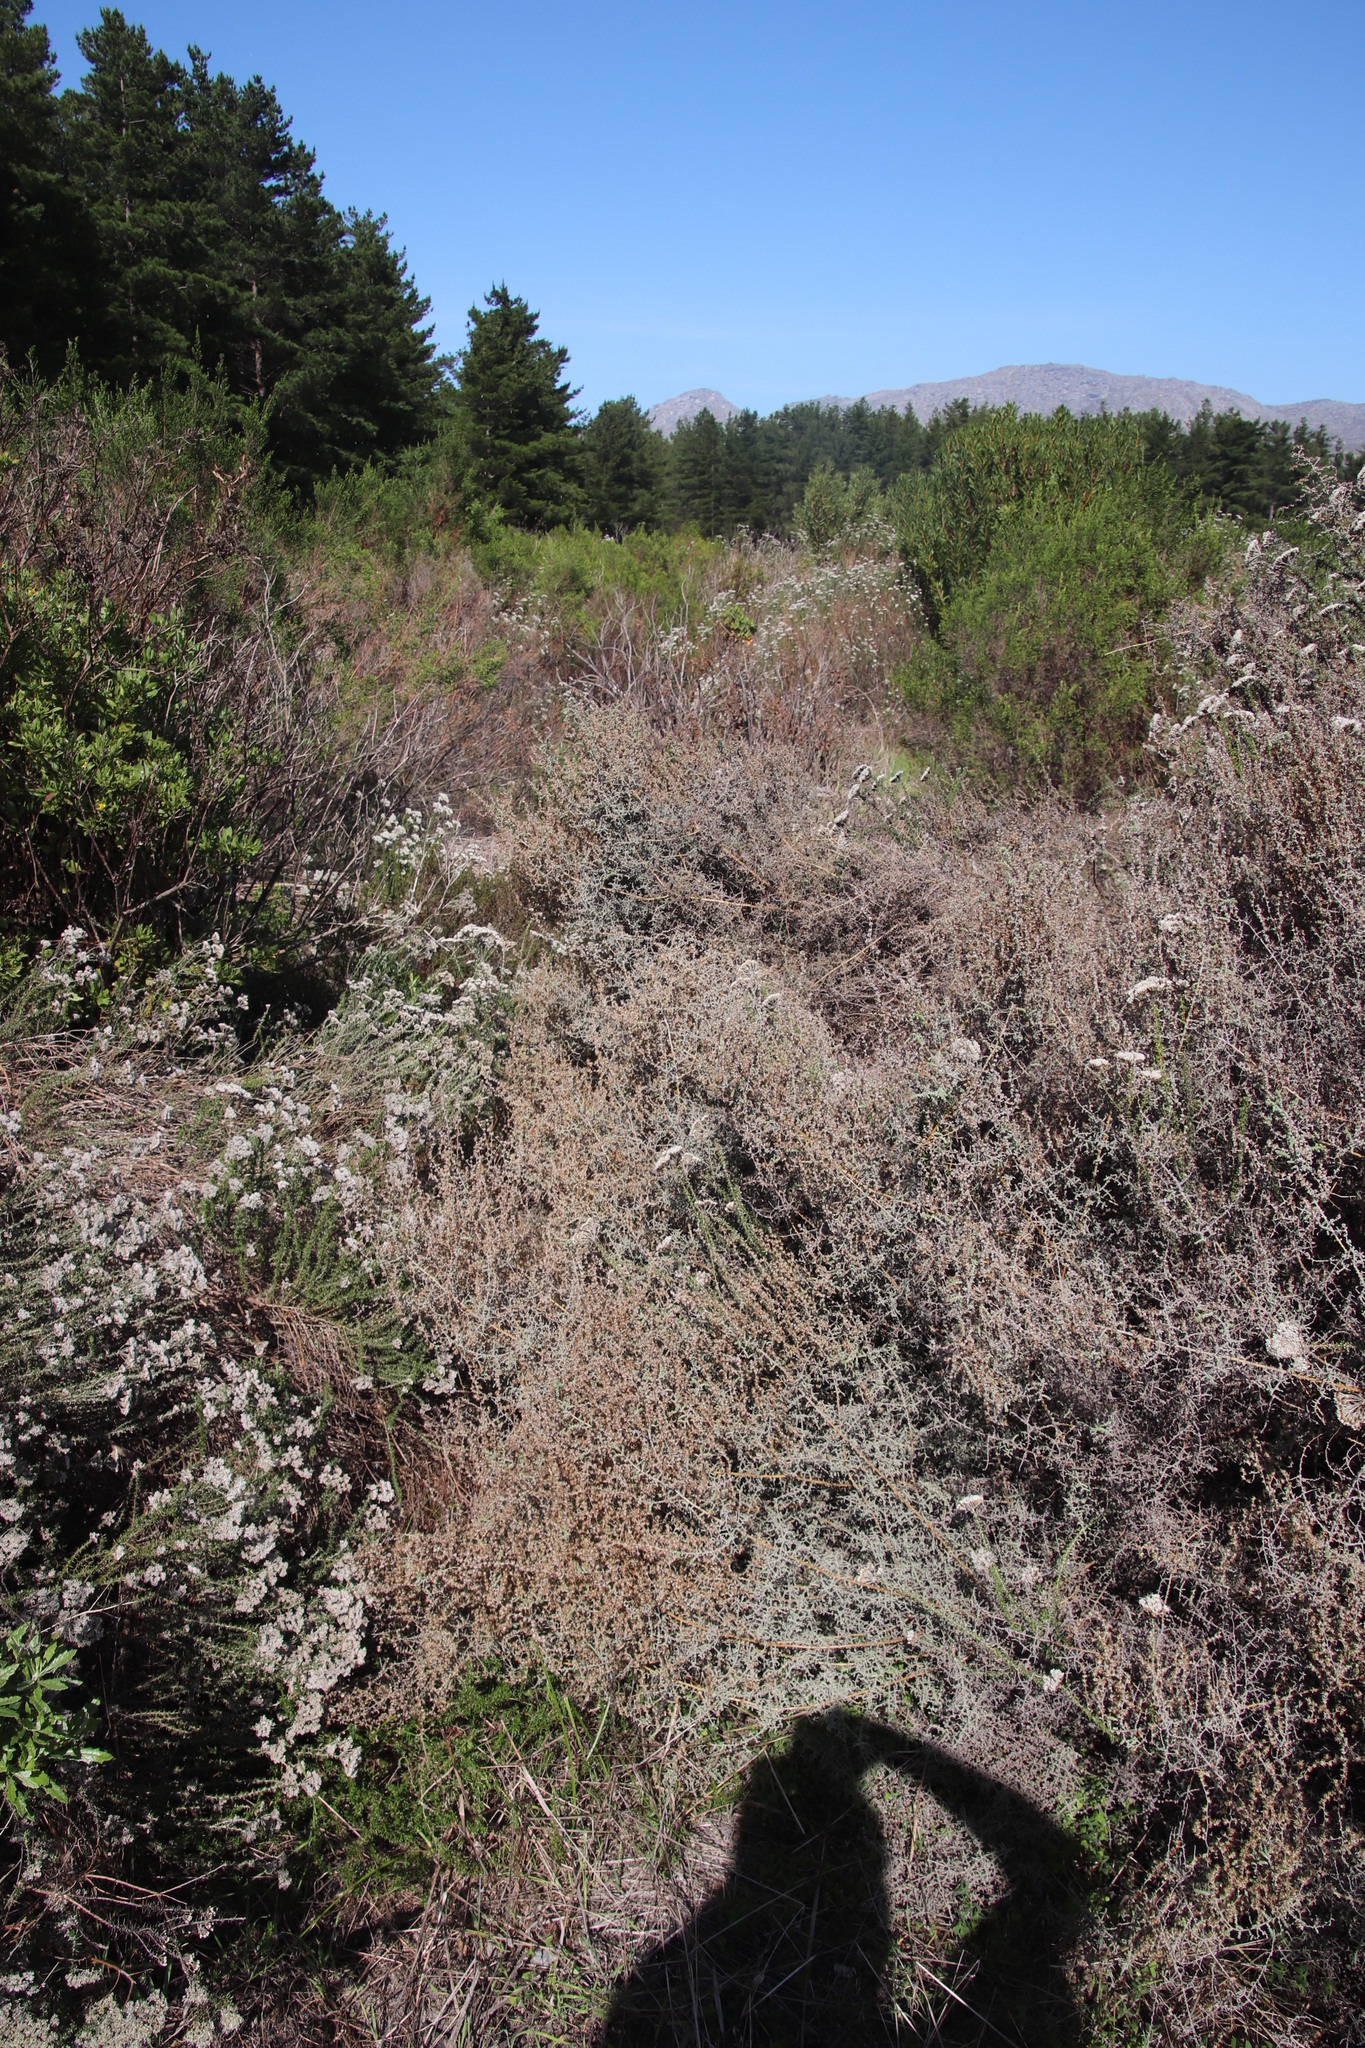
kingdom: Plantae
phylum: Tracheophyta
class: Magnoliopsida
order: Asterales
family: Asteraceae
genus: Seriphium
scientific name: Seriphium plumosum
